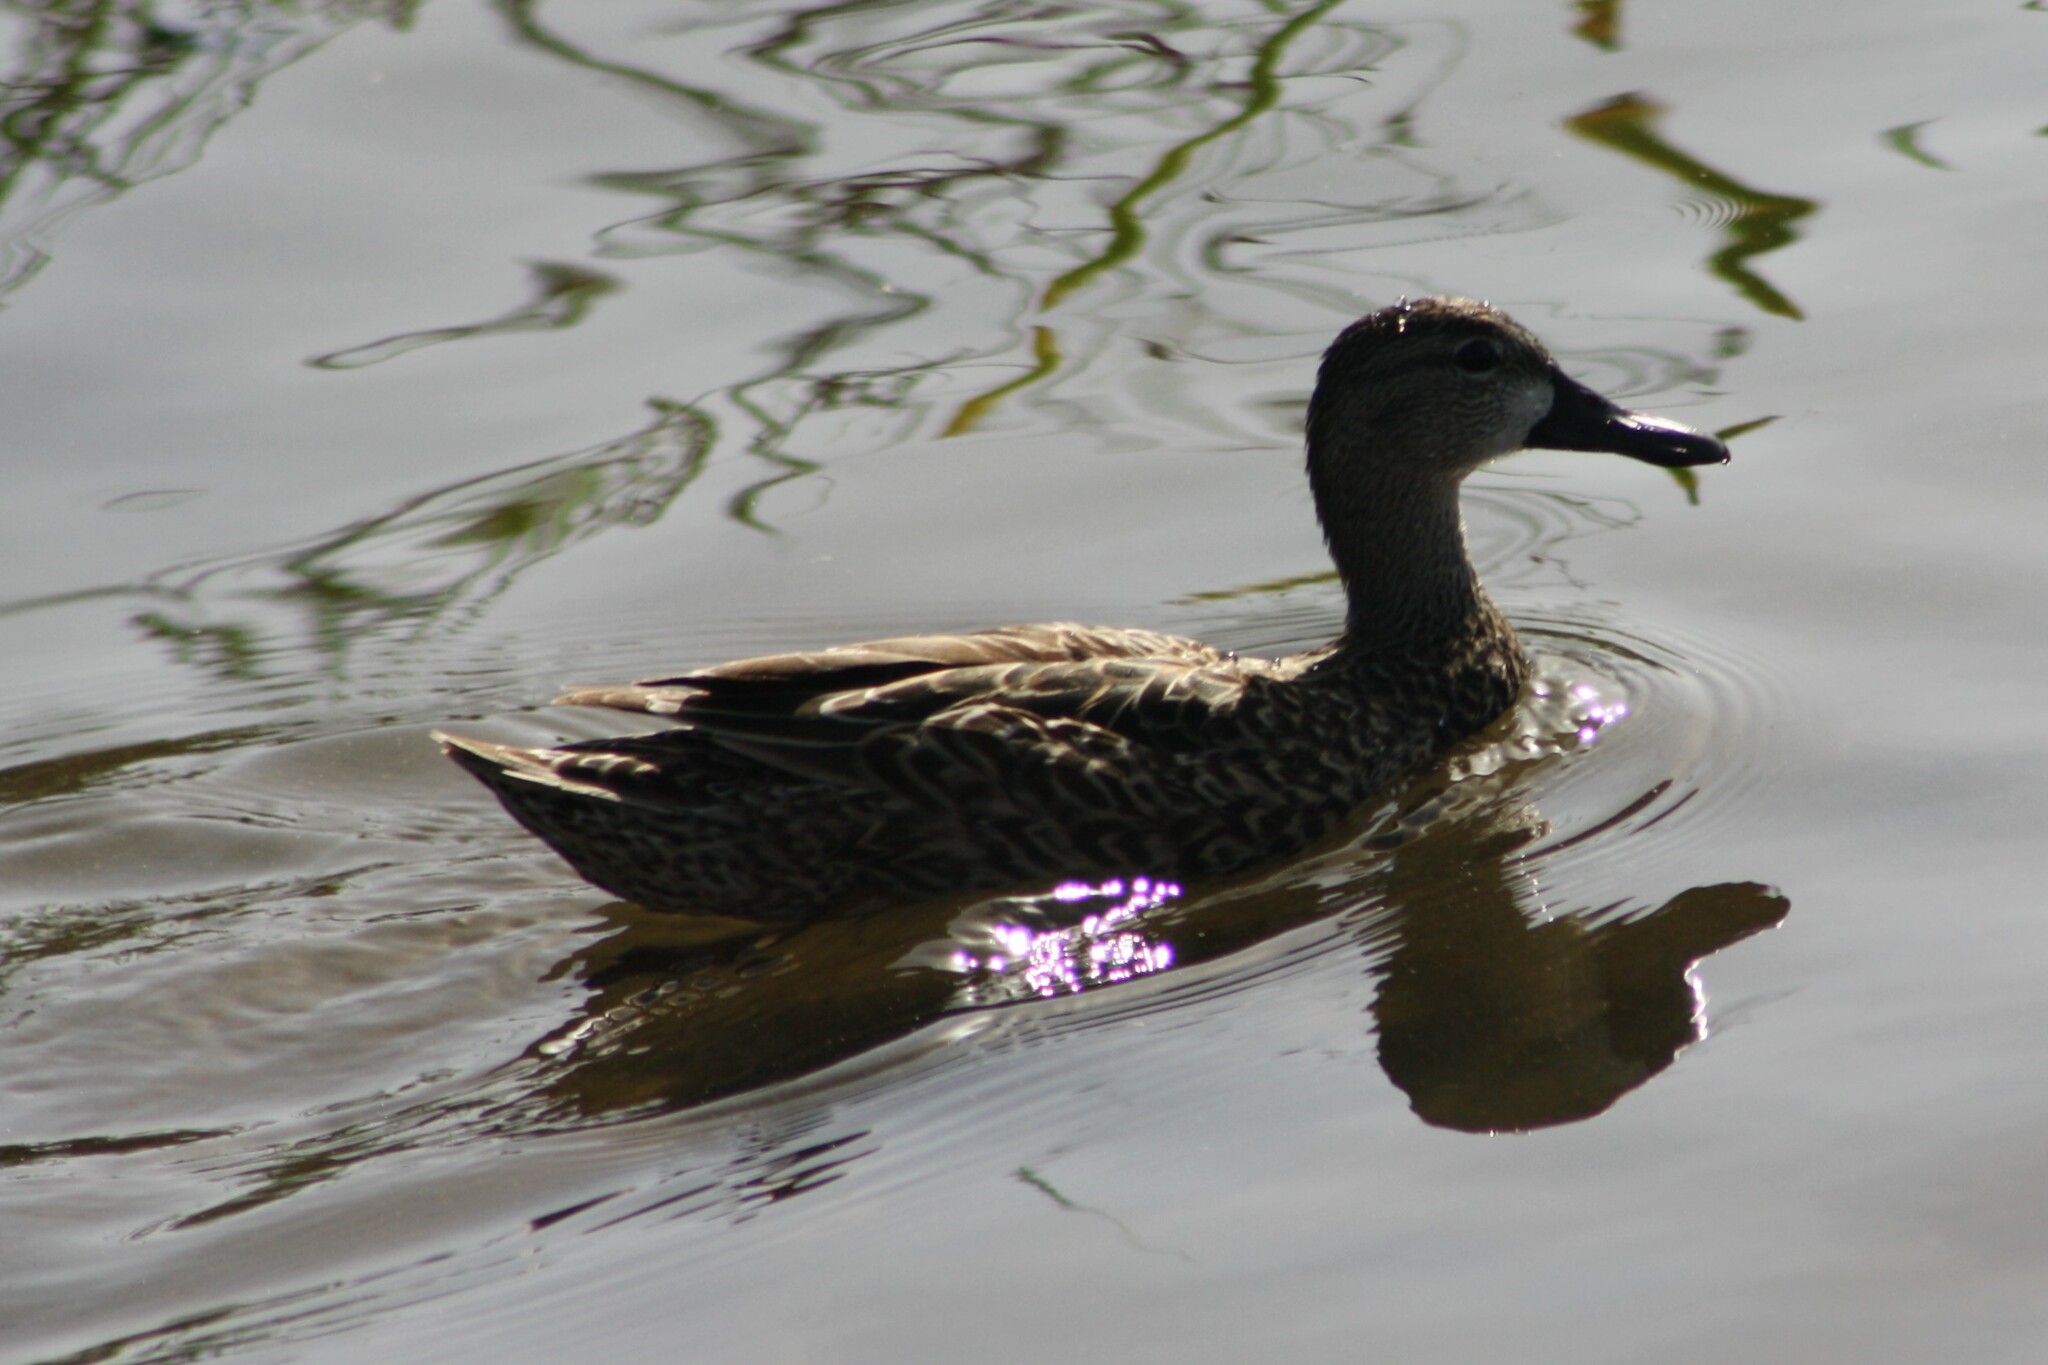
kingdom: Animalia
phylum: Chordata
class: Aves
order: Anseriformes
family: Anatidae
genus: Spatula
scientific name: Spatula discors
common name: Blue-winged teal
